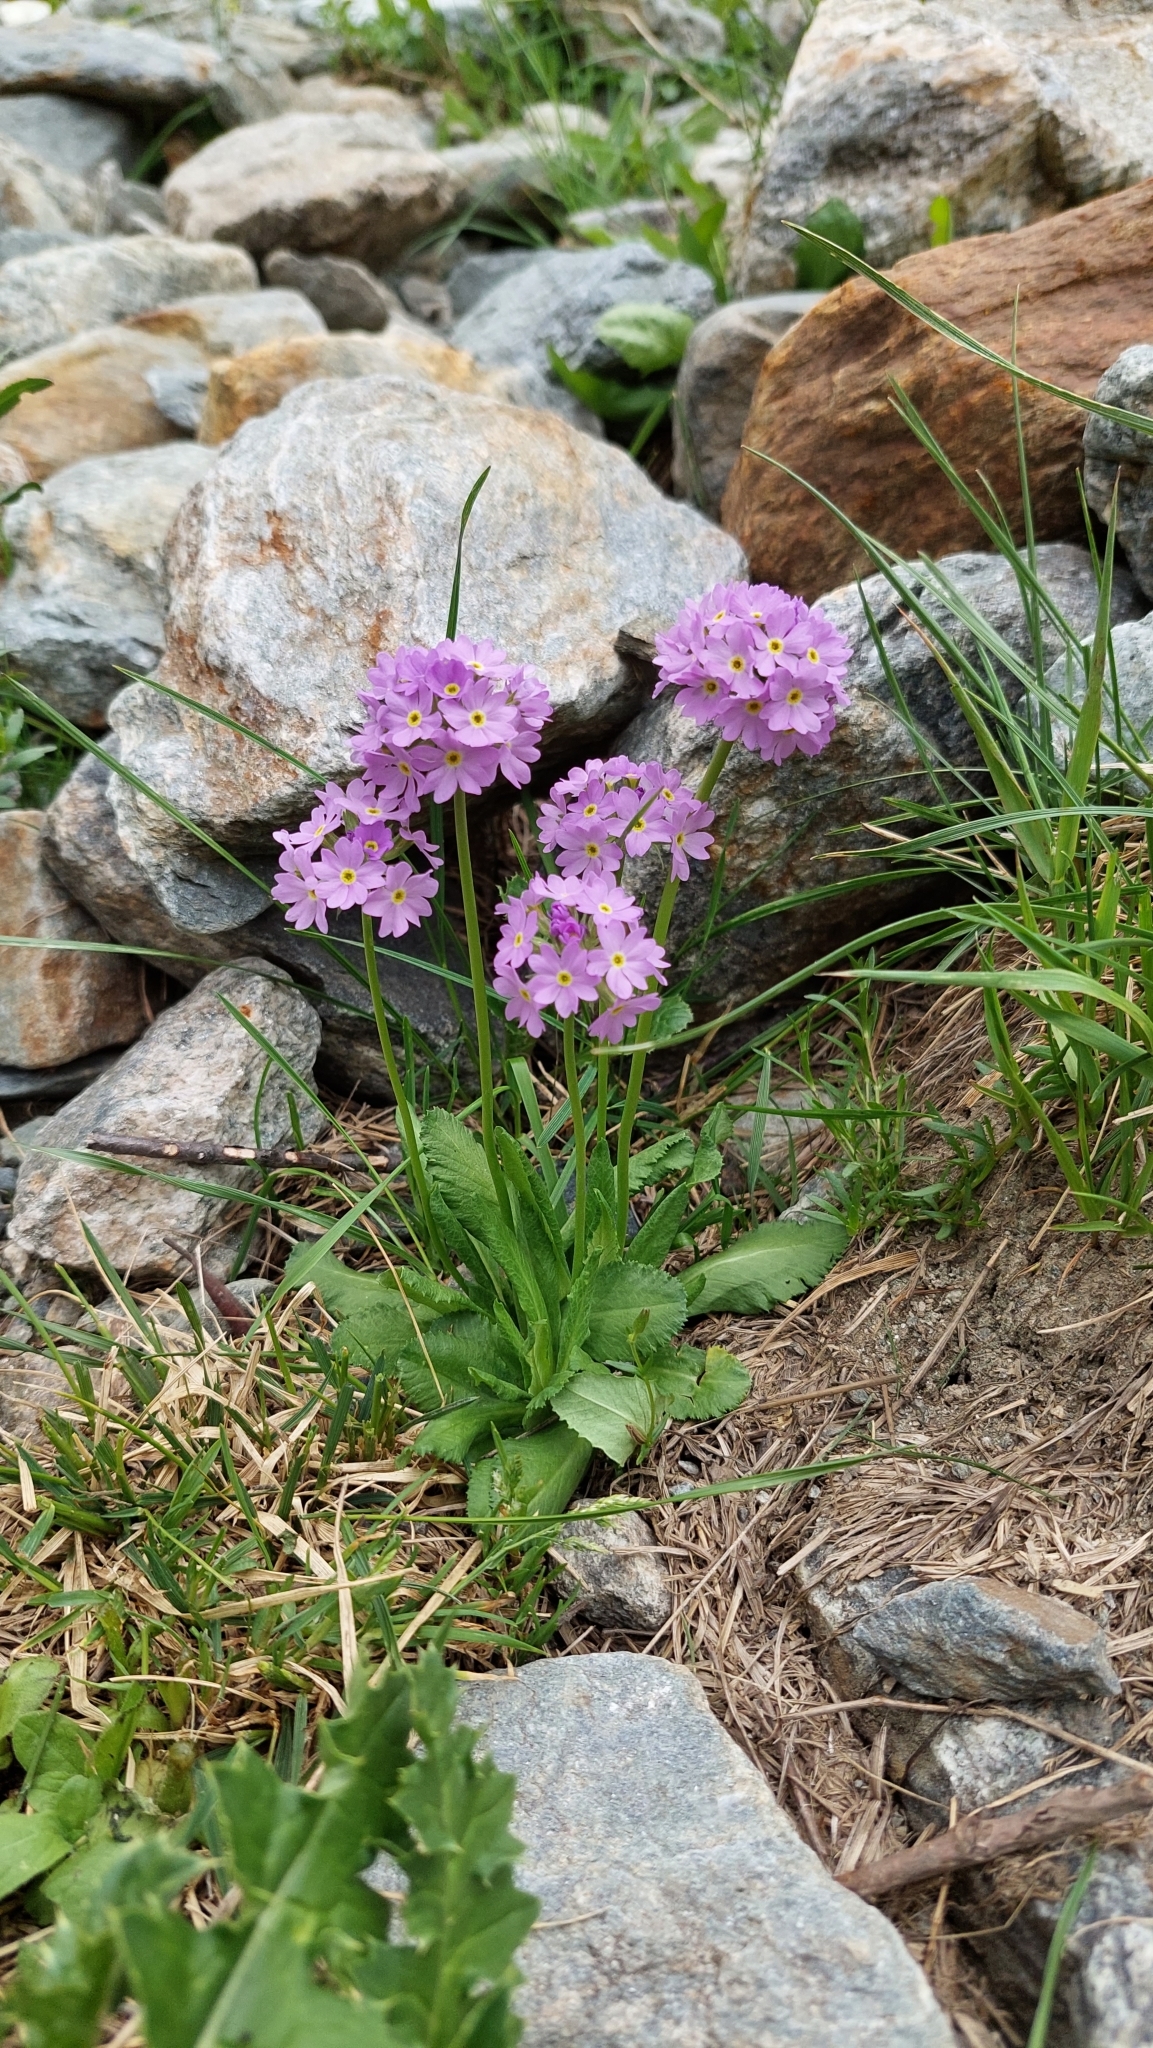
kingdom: Plantae
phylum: Tracheophyta
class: Magnoliopsida
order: Ericales
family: Primulaceae
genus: Primula
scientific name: Primula algida
